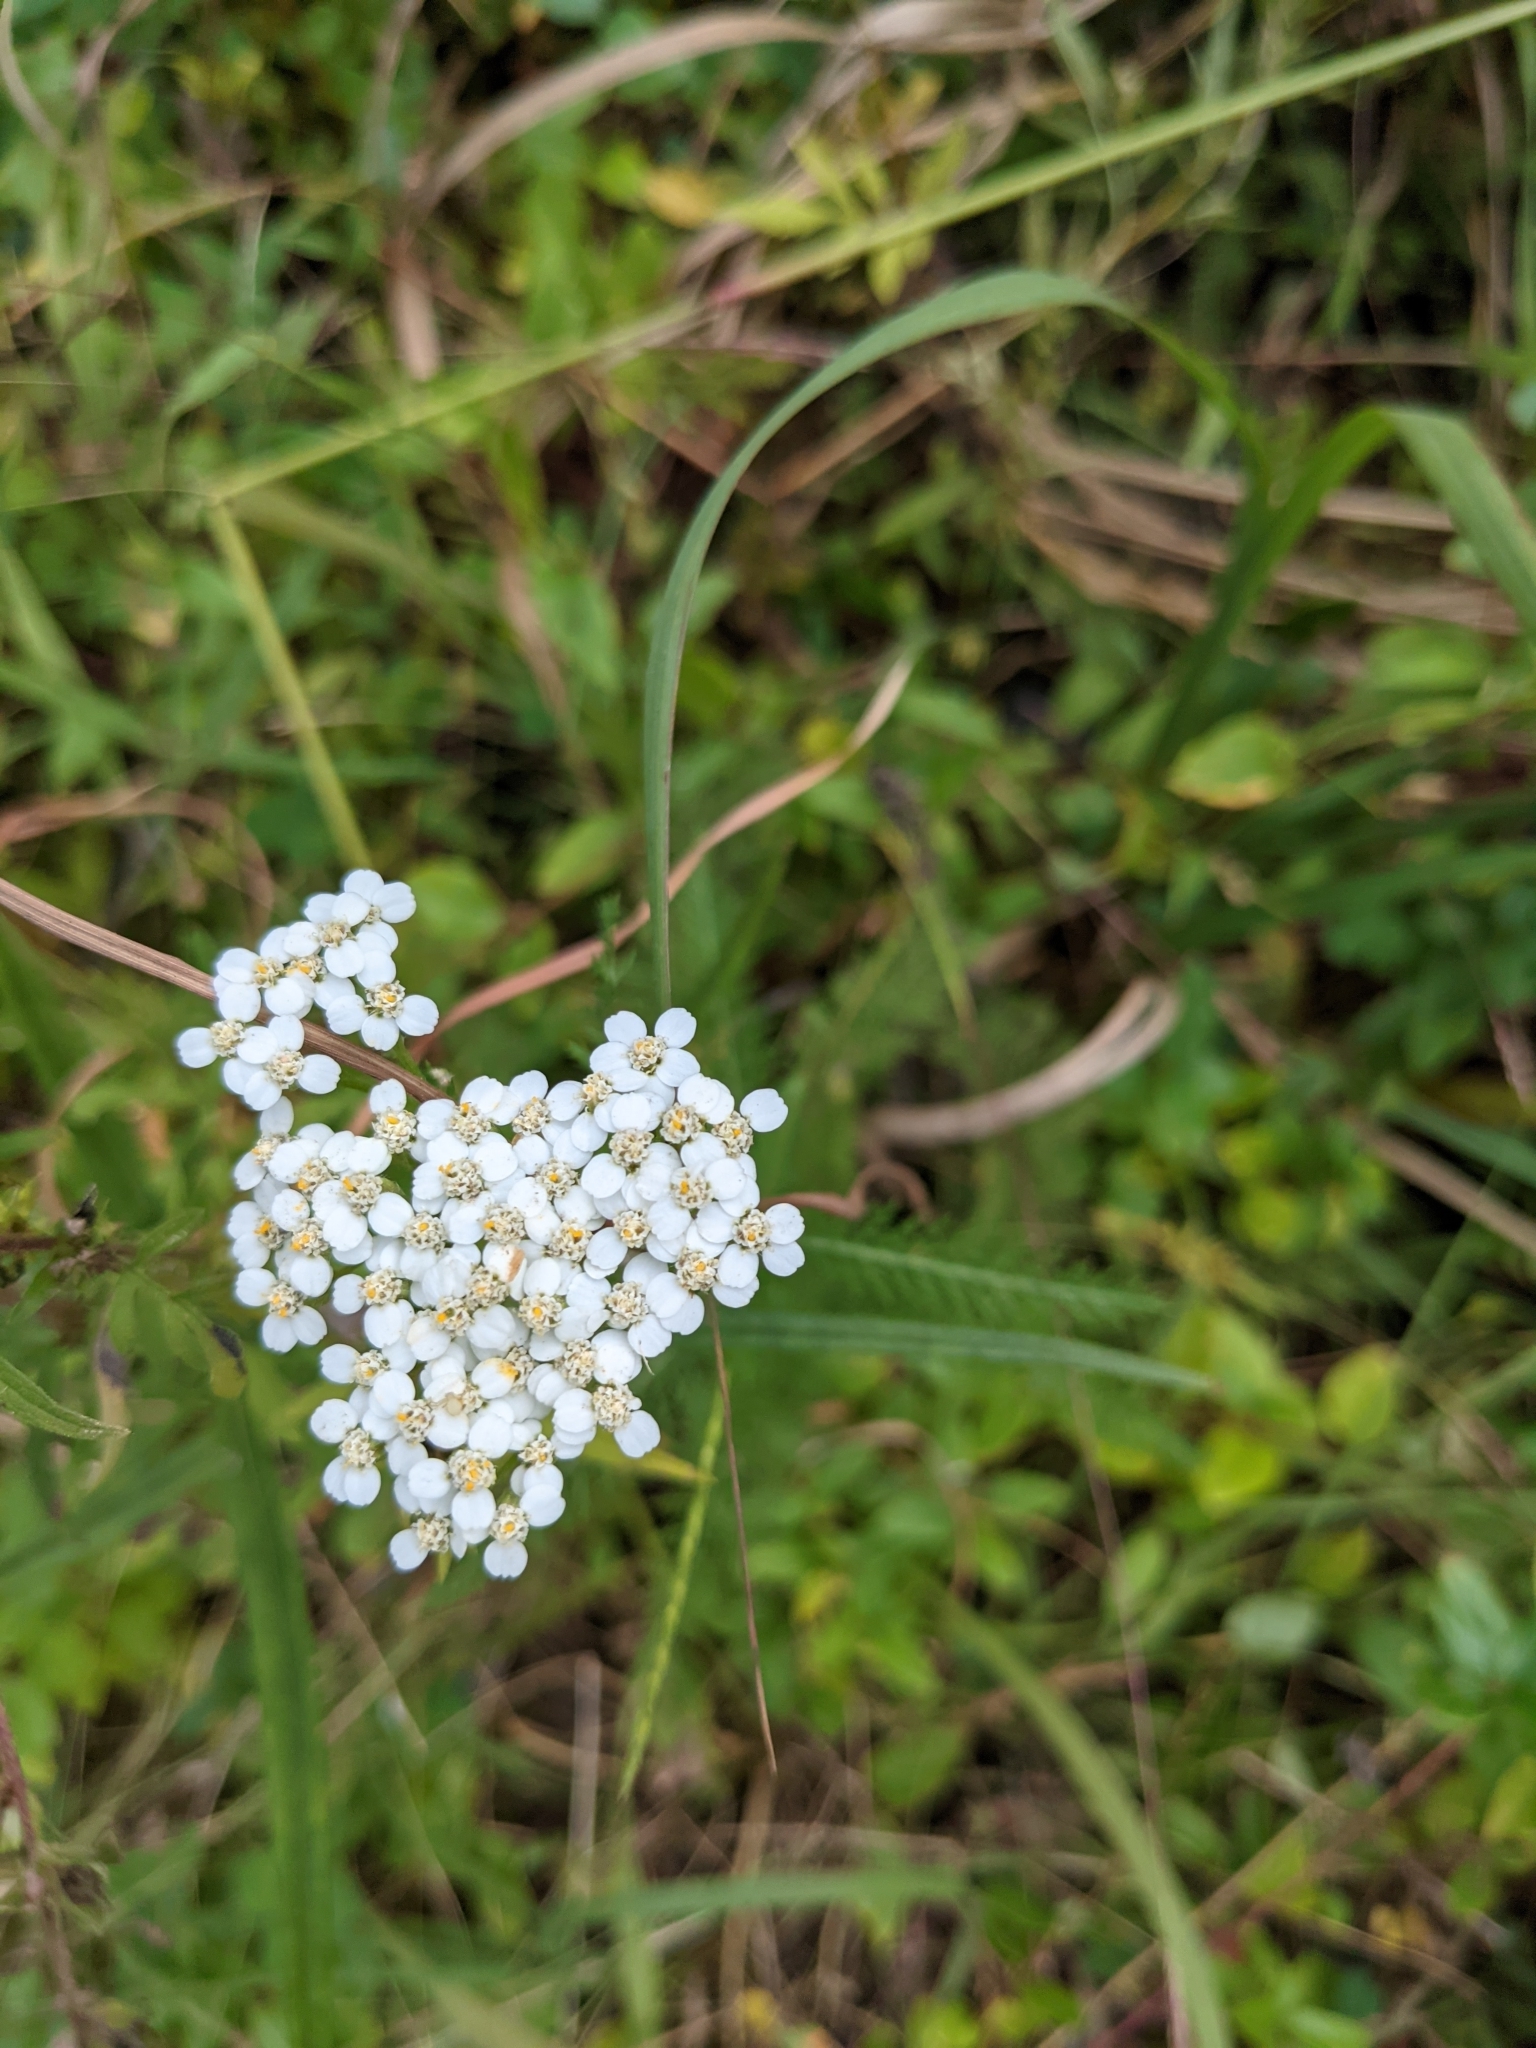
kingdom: Plantae
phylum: Tracheophyta
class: Magnoliopsida
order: Asterales
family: Asteraceae
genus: Achillea
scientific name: Achillea millefolium
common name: Yarrow
